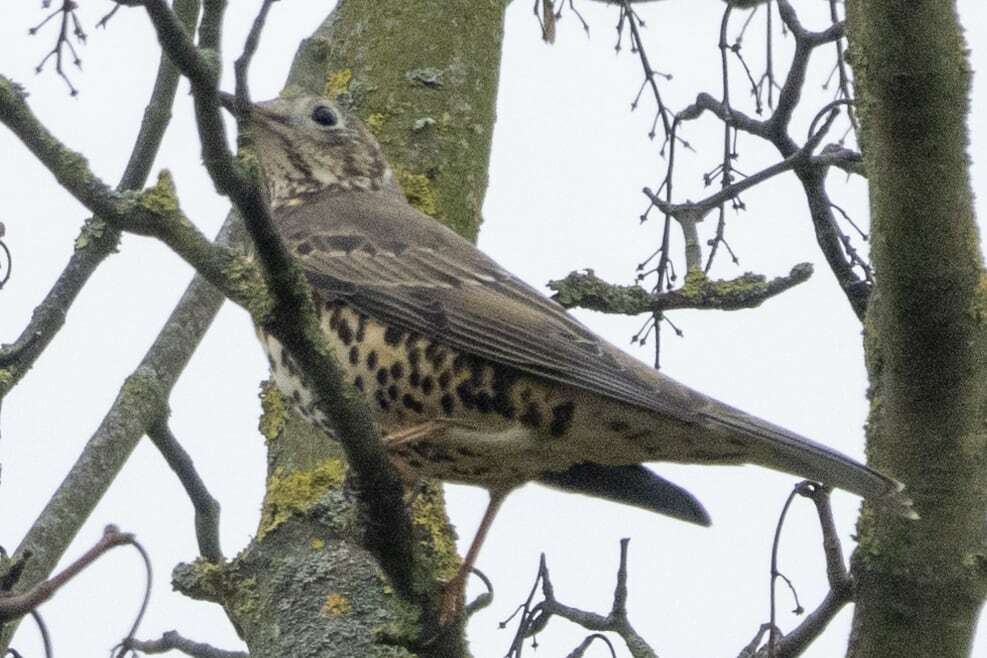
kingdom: Animalia
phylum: Chordata
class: Aves
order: Passeriformes
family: Turdidae
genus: Turdus
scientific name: Turdus viscivorus
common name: Mistle thrush
